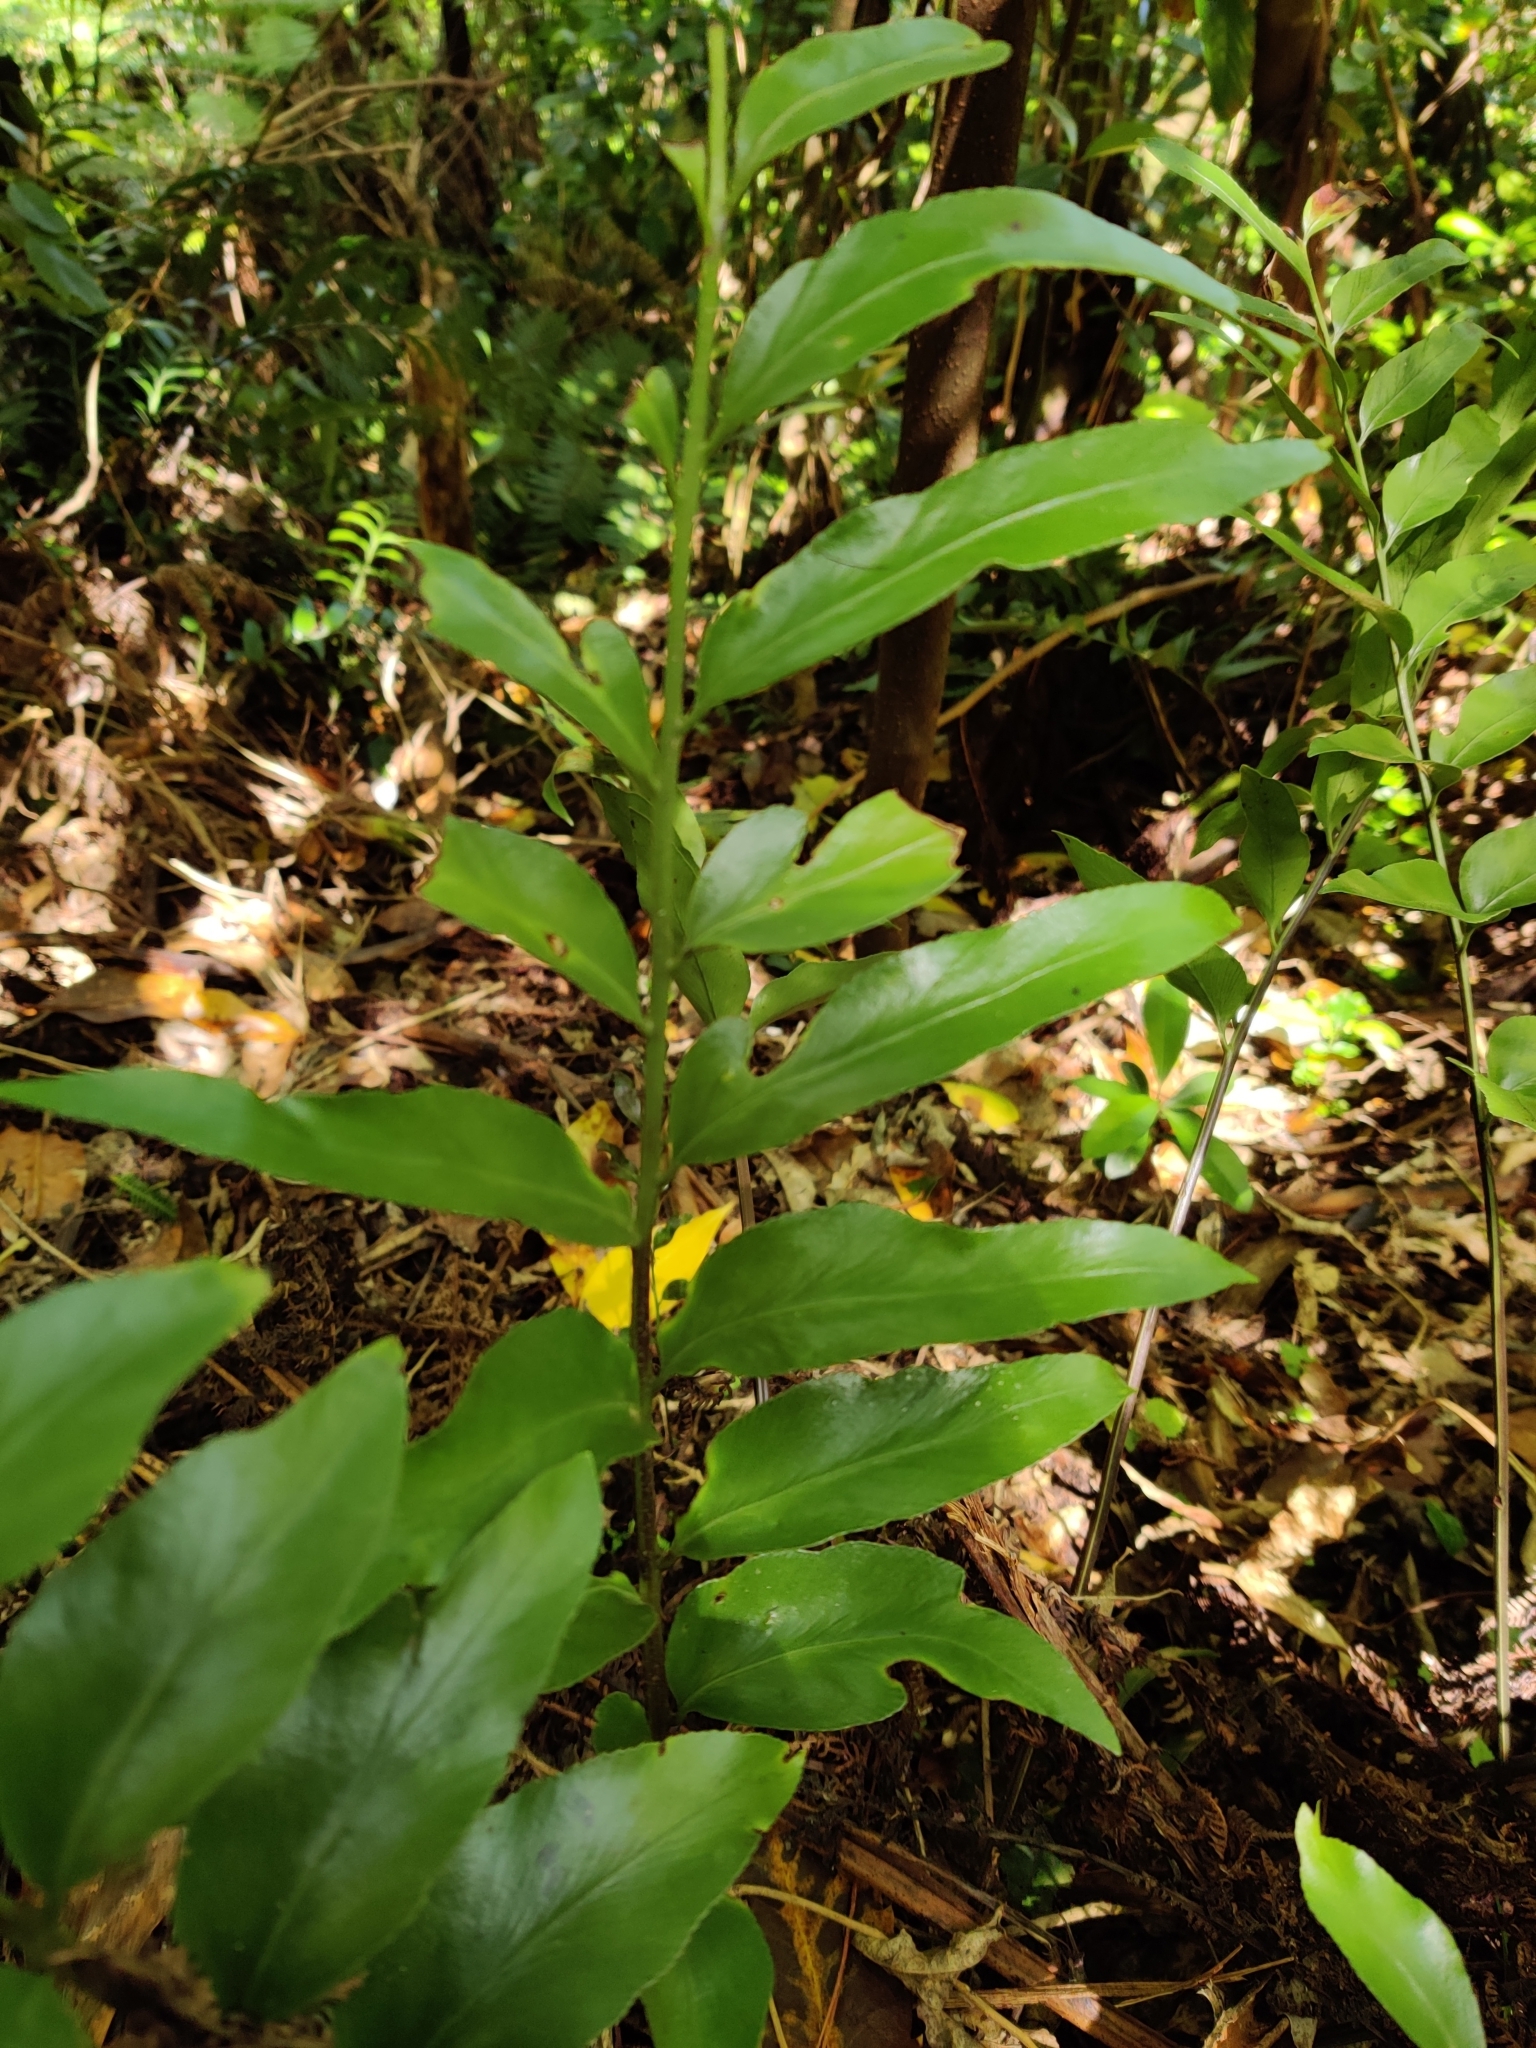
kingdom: Plantae
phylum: Tracheophyta
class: Polypodiopsida
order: Polypodiales
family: Aspleniaceae
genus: Asplenium
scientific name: Asplenium oblongifolium
